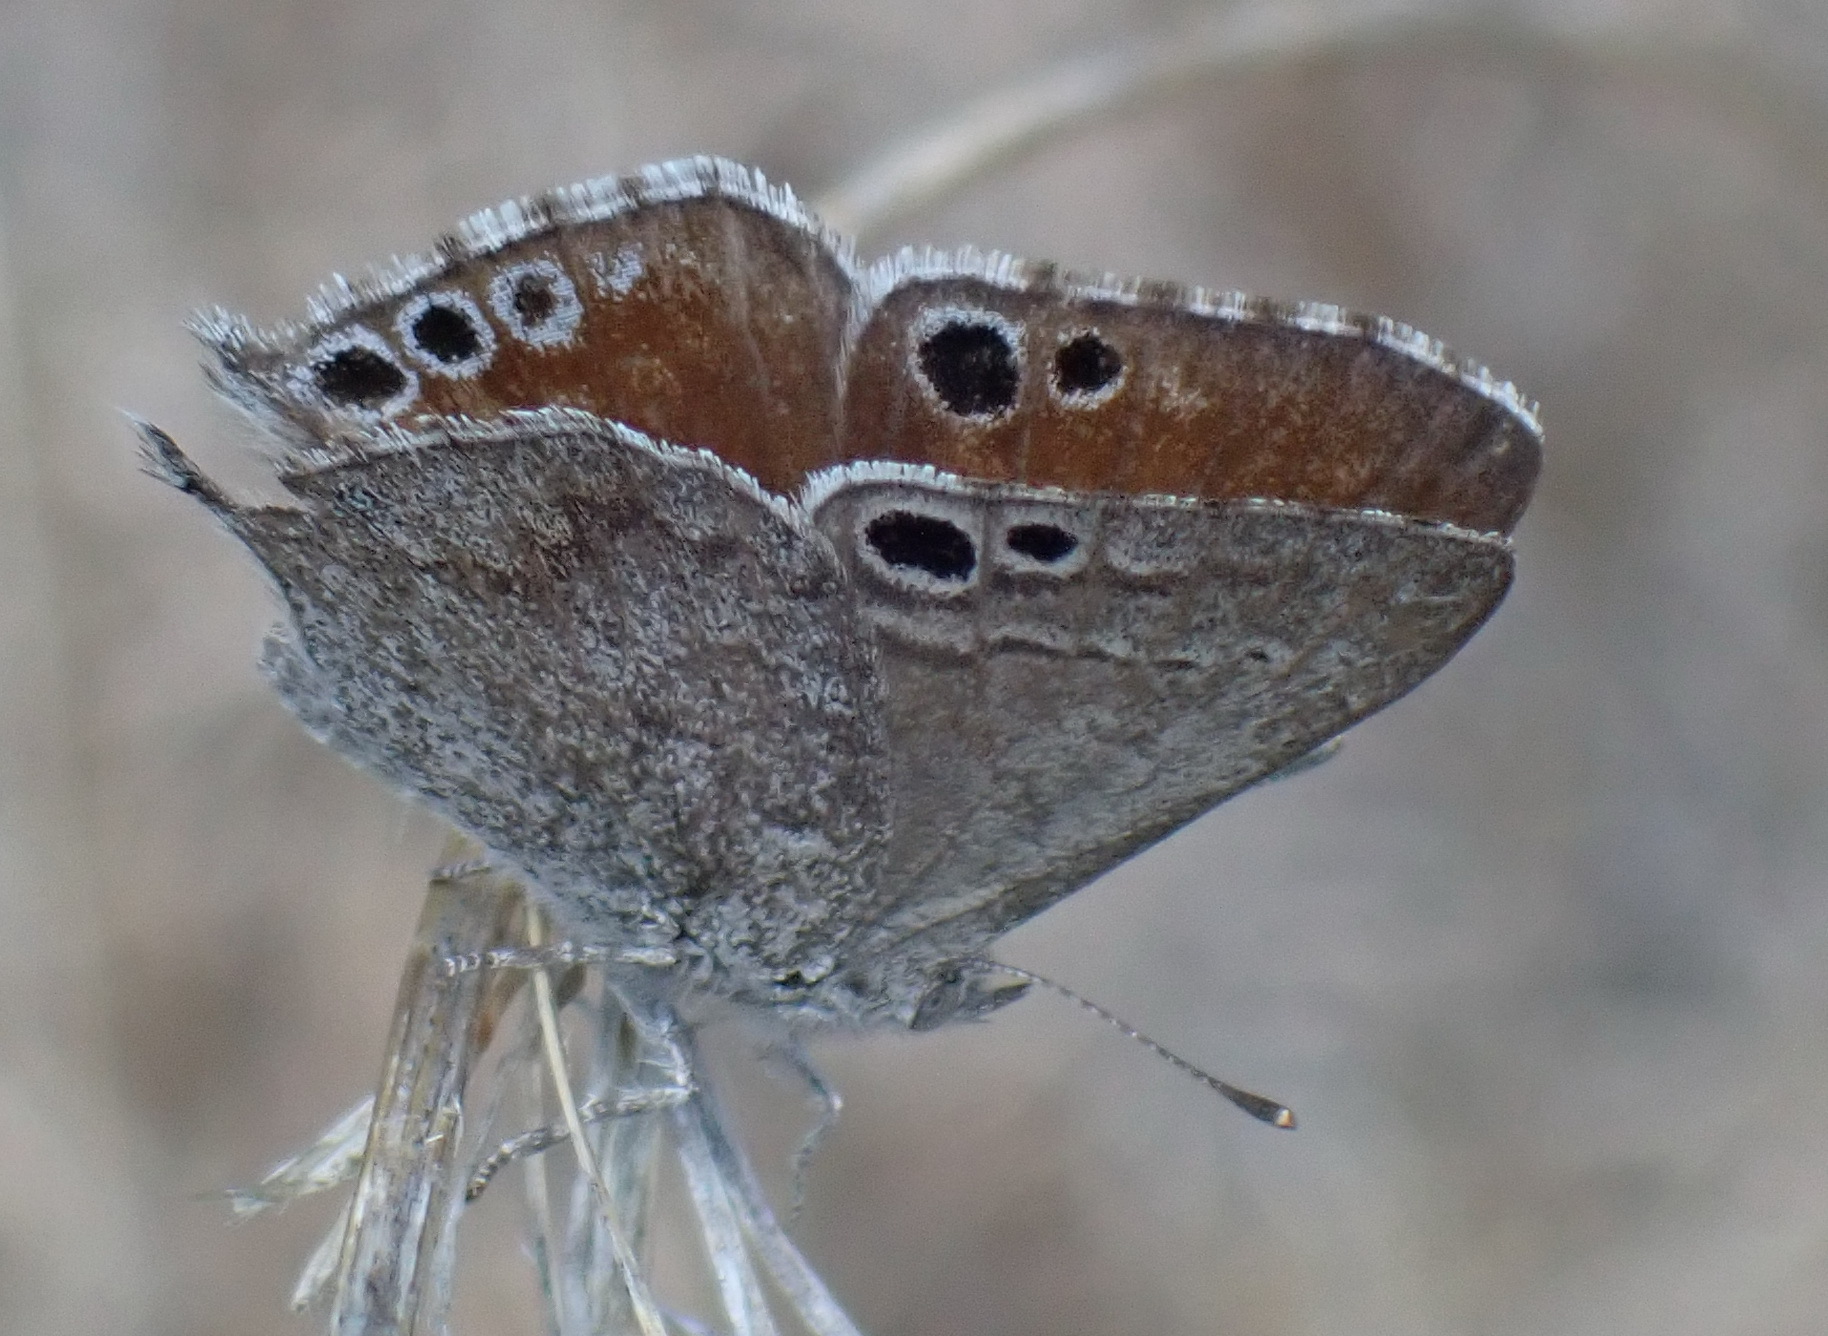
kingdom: Animalia
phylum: Arthropoda
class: Insecta
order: Lepidoptera
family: Lycaenidae
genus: Leptomyrina
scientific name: Leptomyrina henningi
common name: Henning's black-eye
